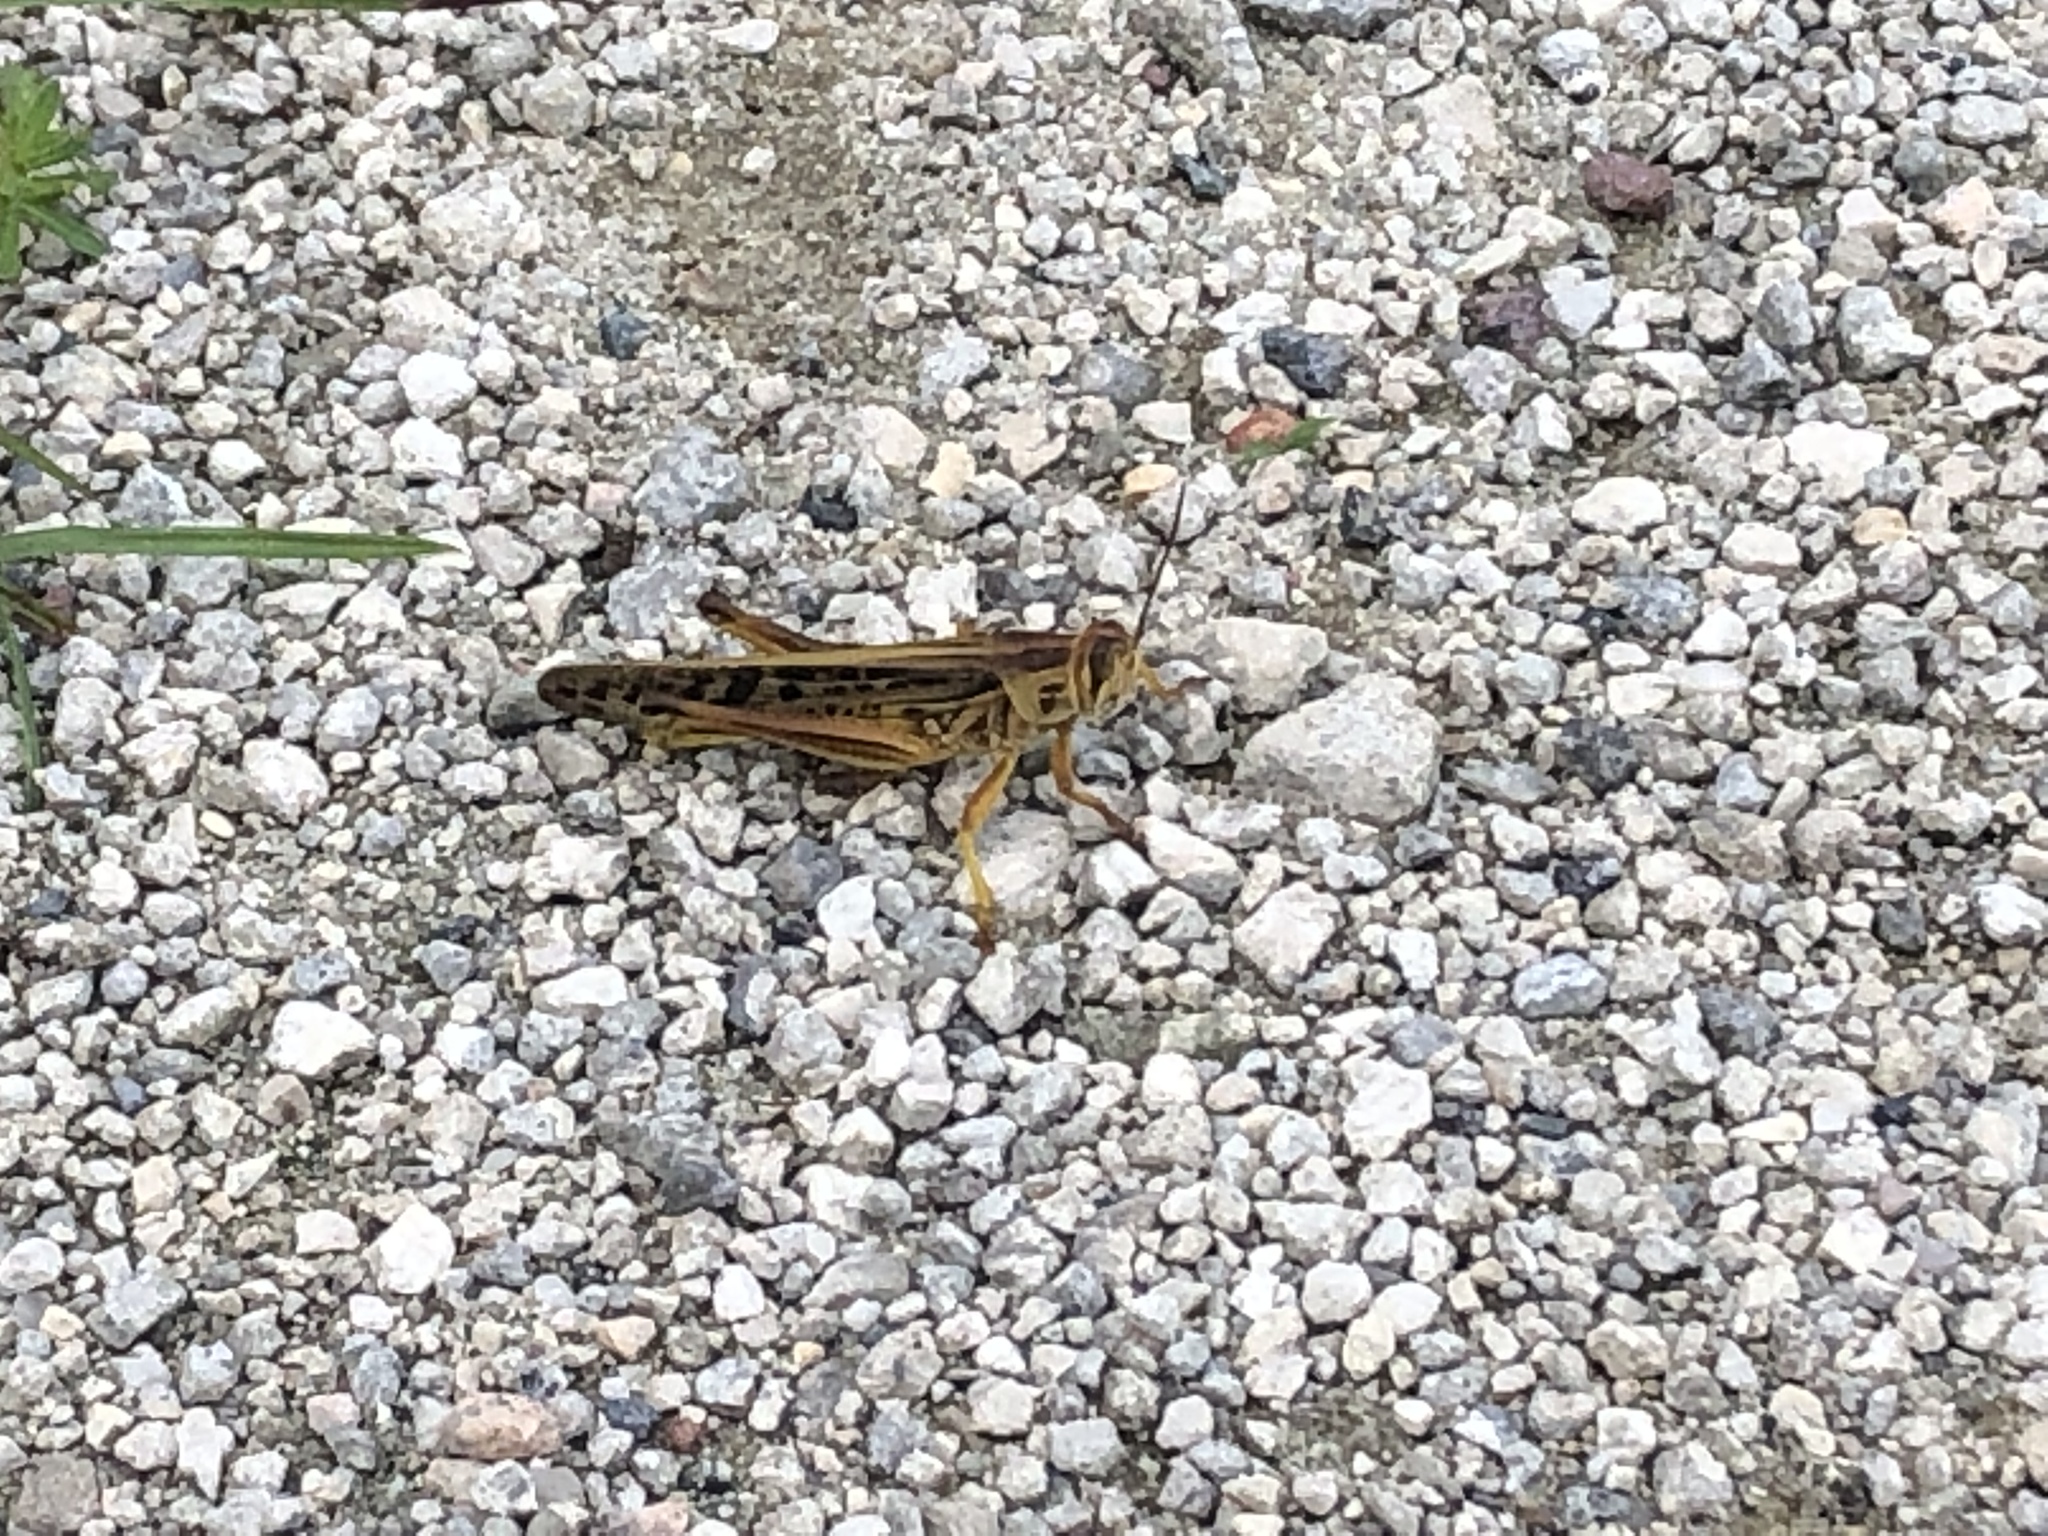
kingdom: Animalia
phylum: Arthropoda
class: Insecta
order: Orthoptera
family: Acrididae
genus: Schistocerca
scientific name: Schistocerca americana
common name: American bird locust
